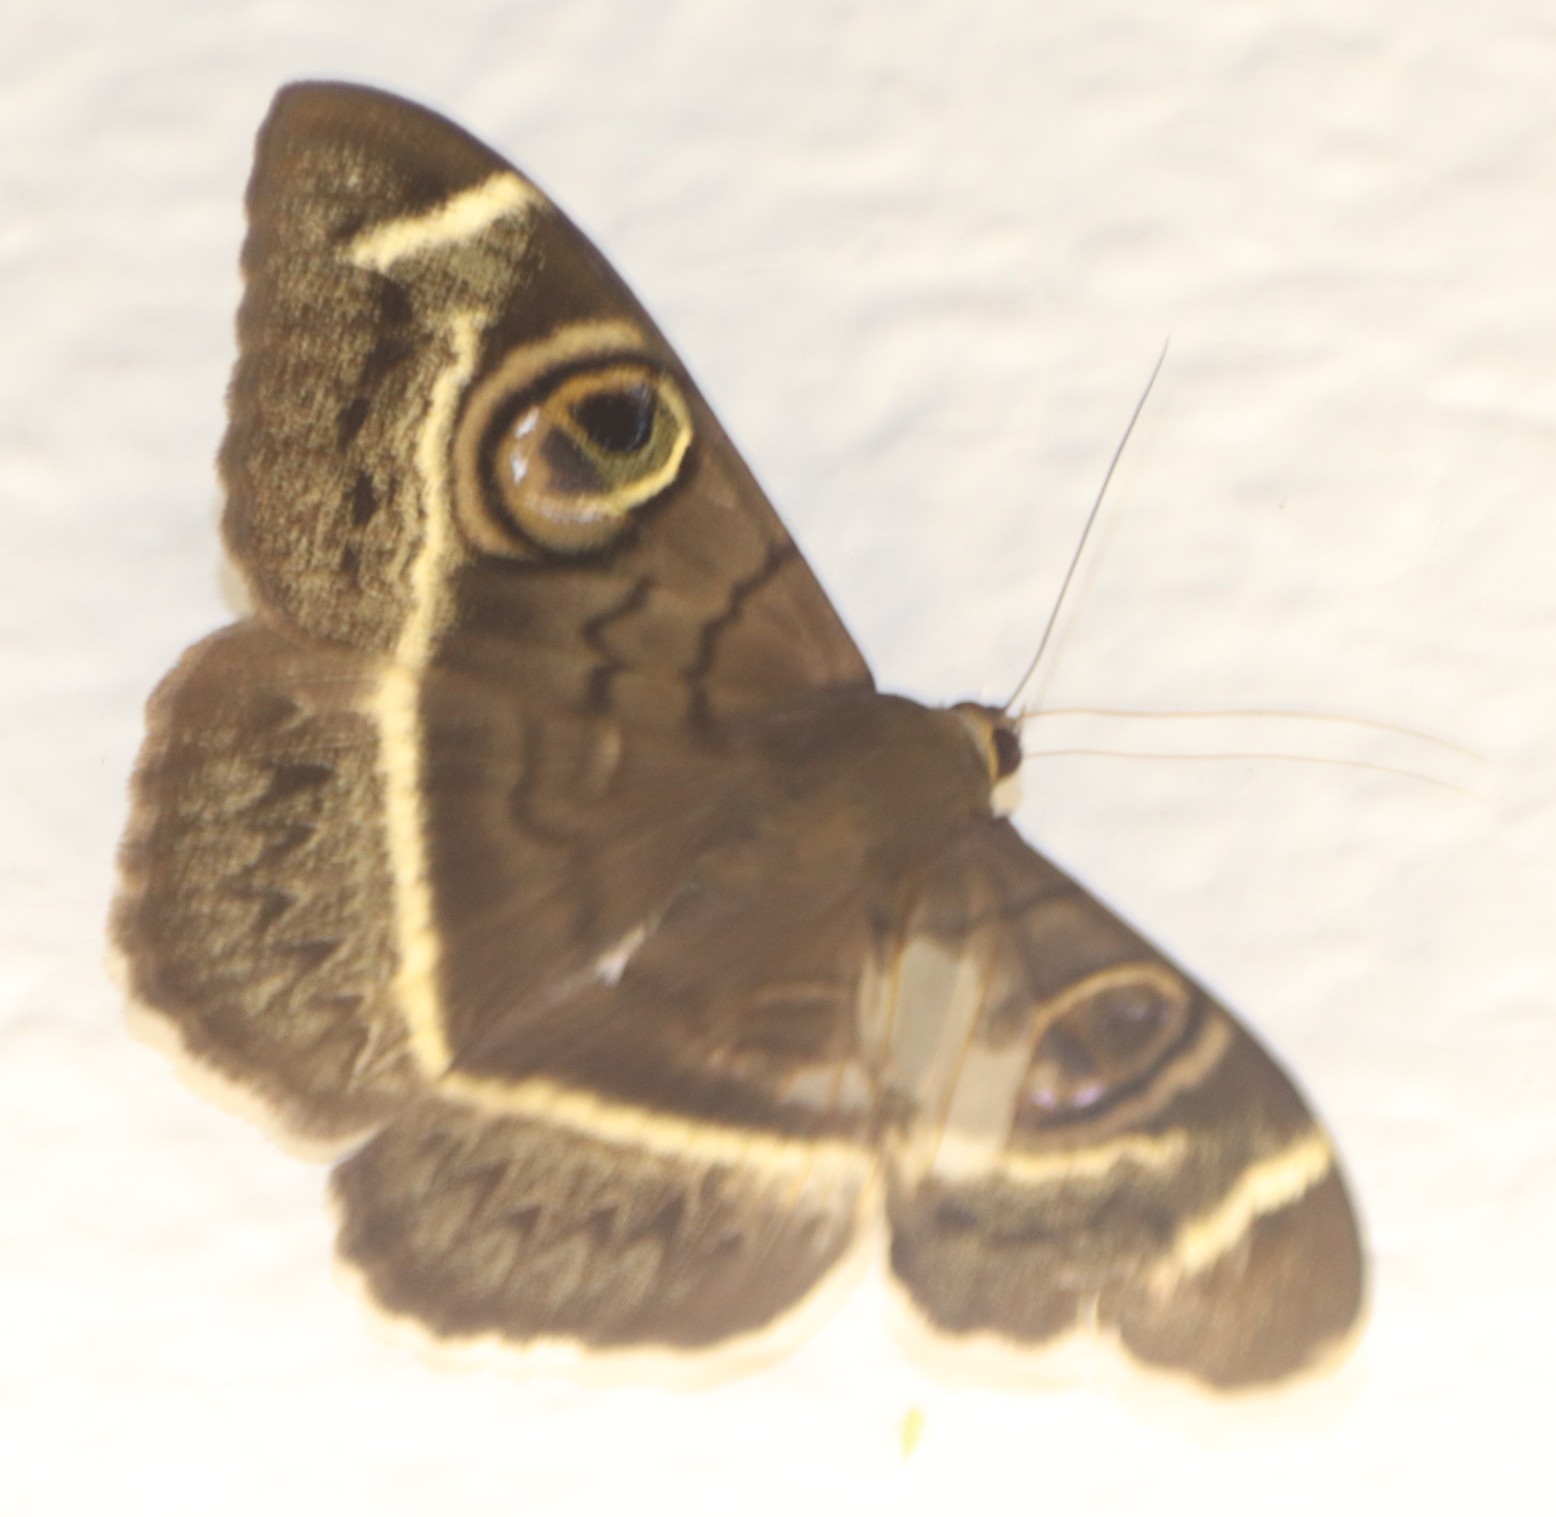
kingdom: Animalia
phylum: Arthropoda
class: Insecta
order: Lepidoptera
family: Erebidae
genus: Cyligramma
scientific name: Cyligramma latona
